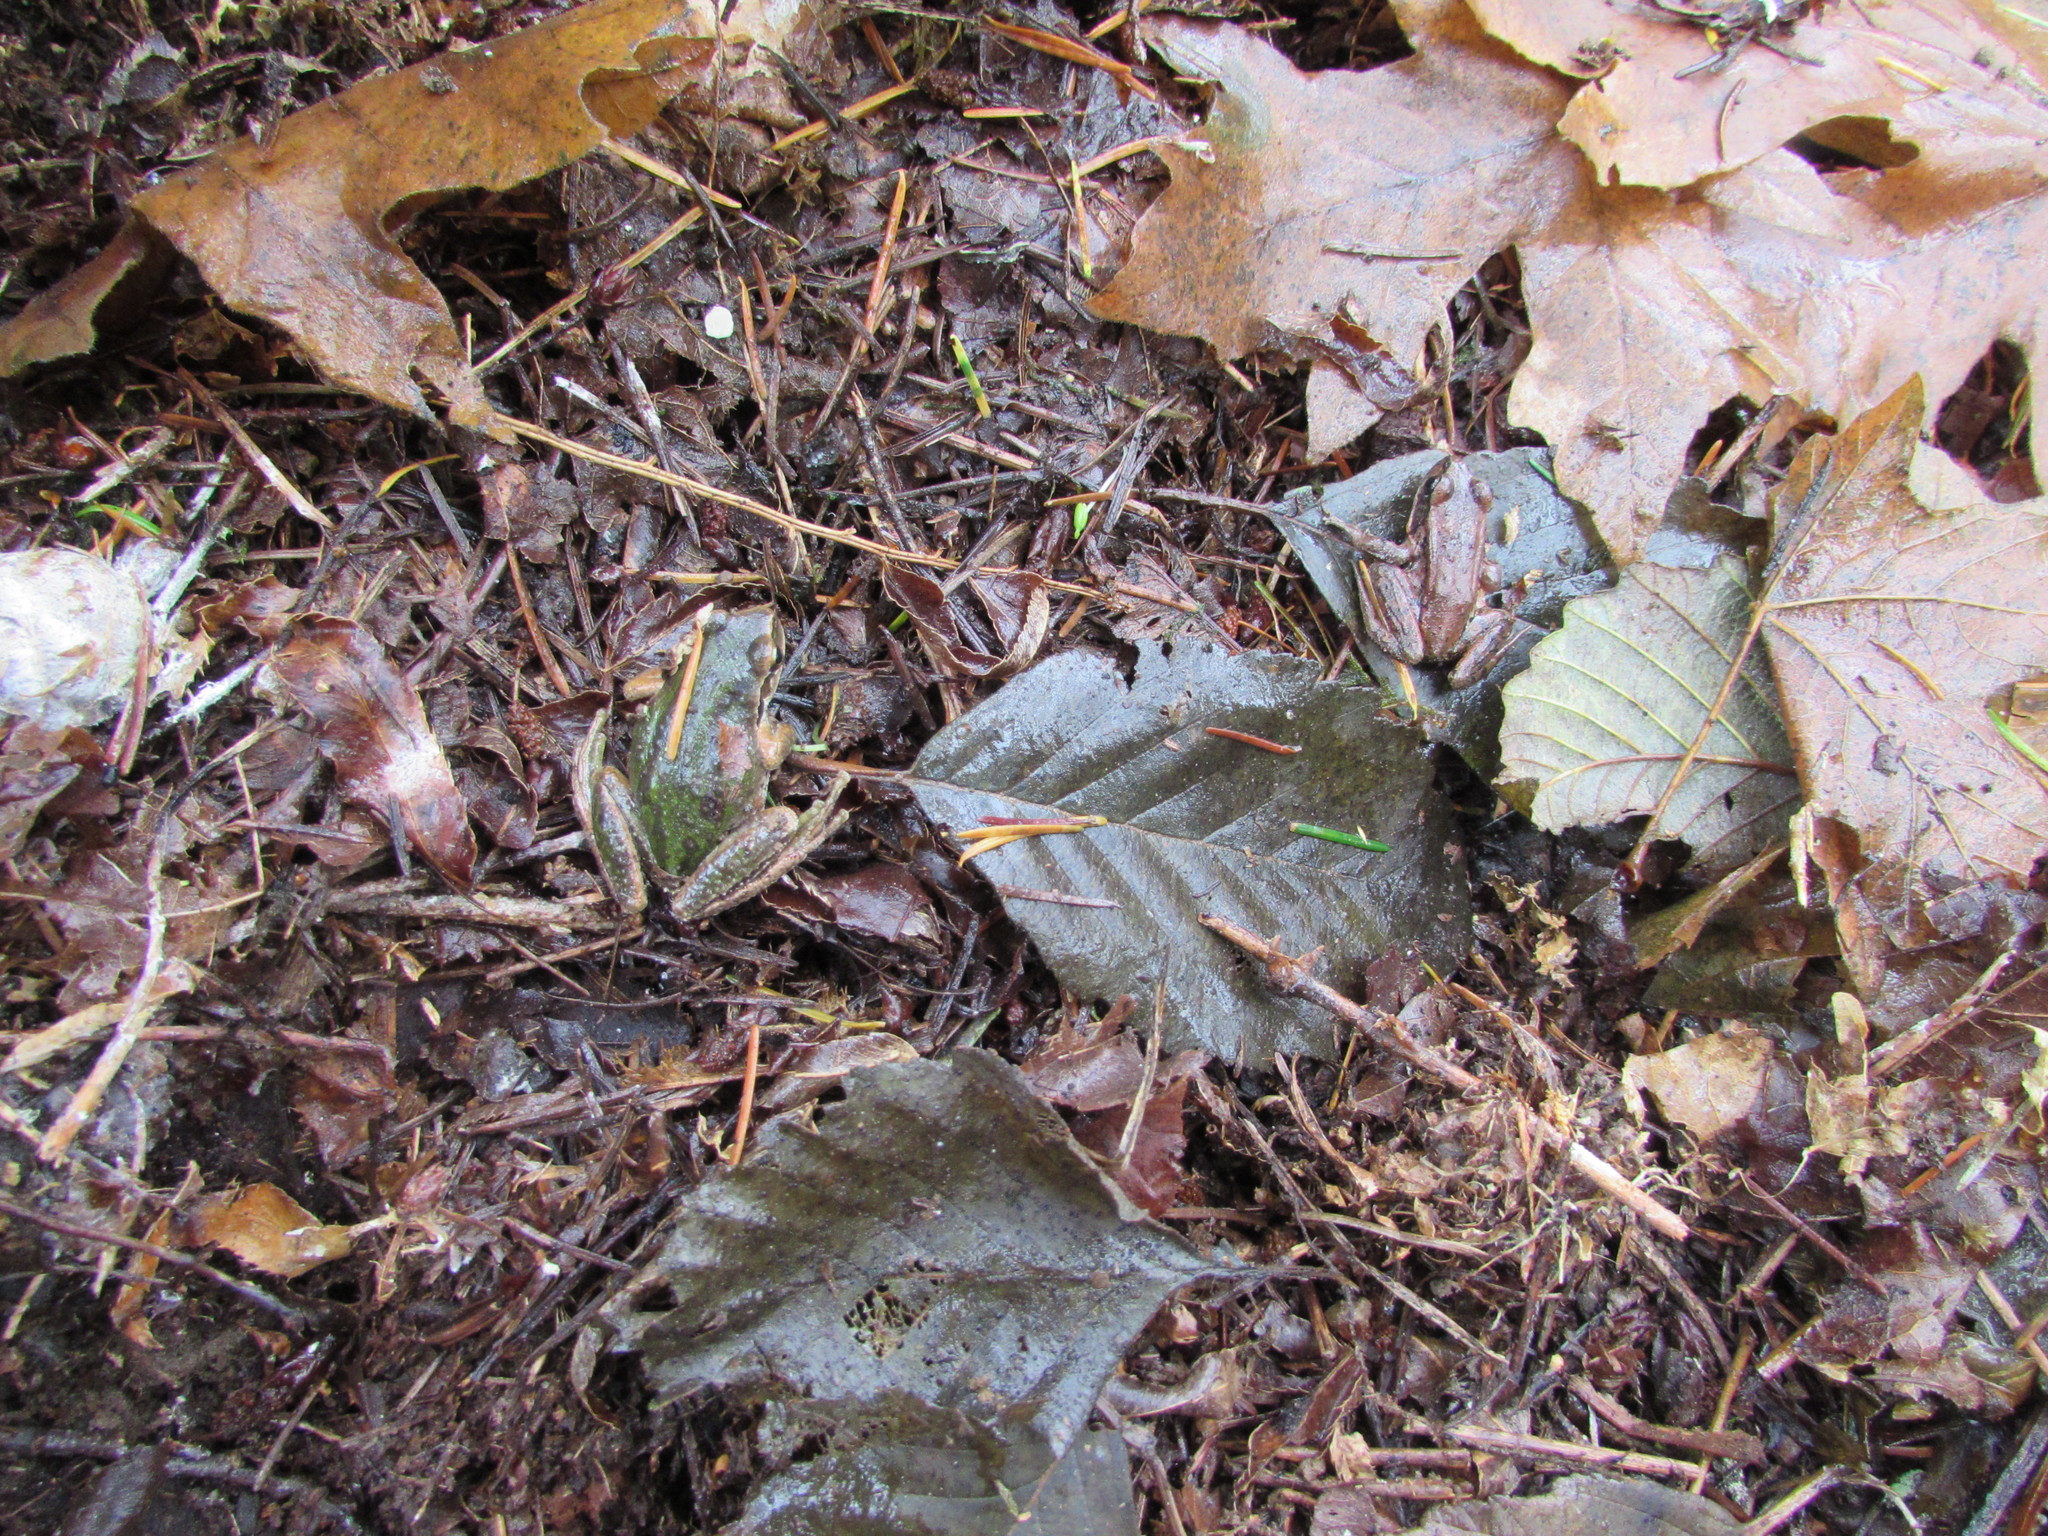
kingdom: Animalia
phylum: Chordata
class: Amphibia
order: Anura
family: Ranidae
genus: Rana
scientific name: Rana aurora
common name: Red-legged frog
